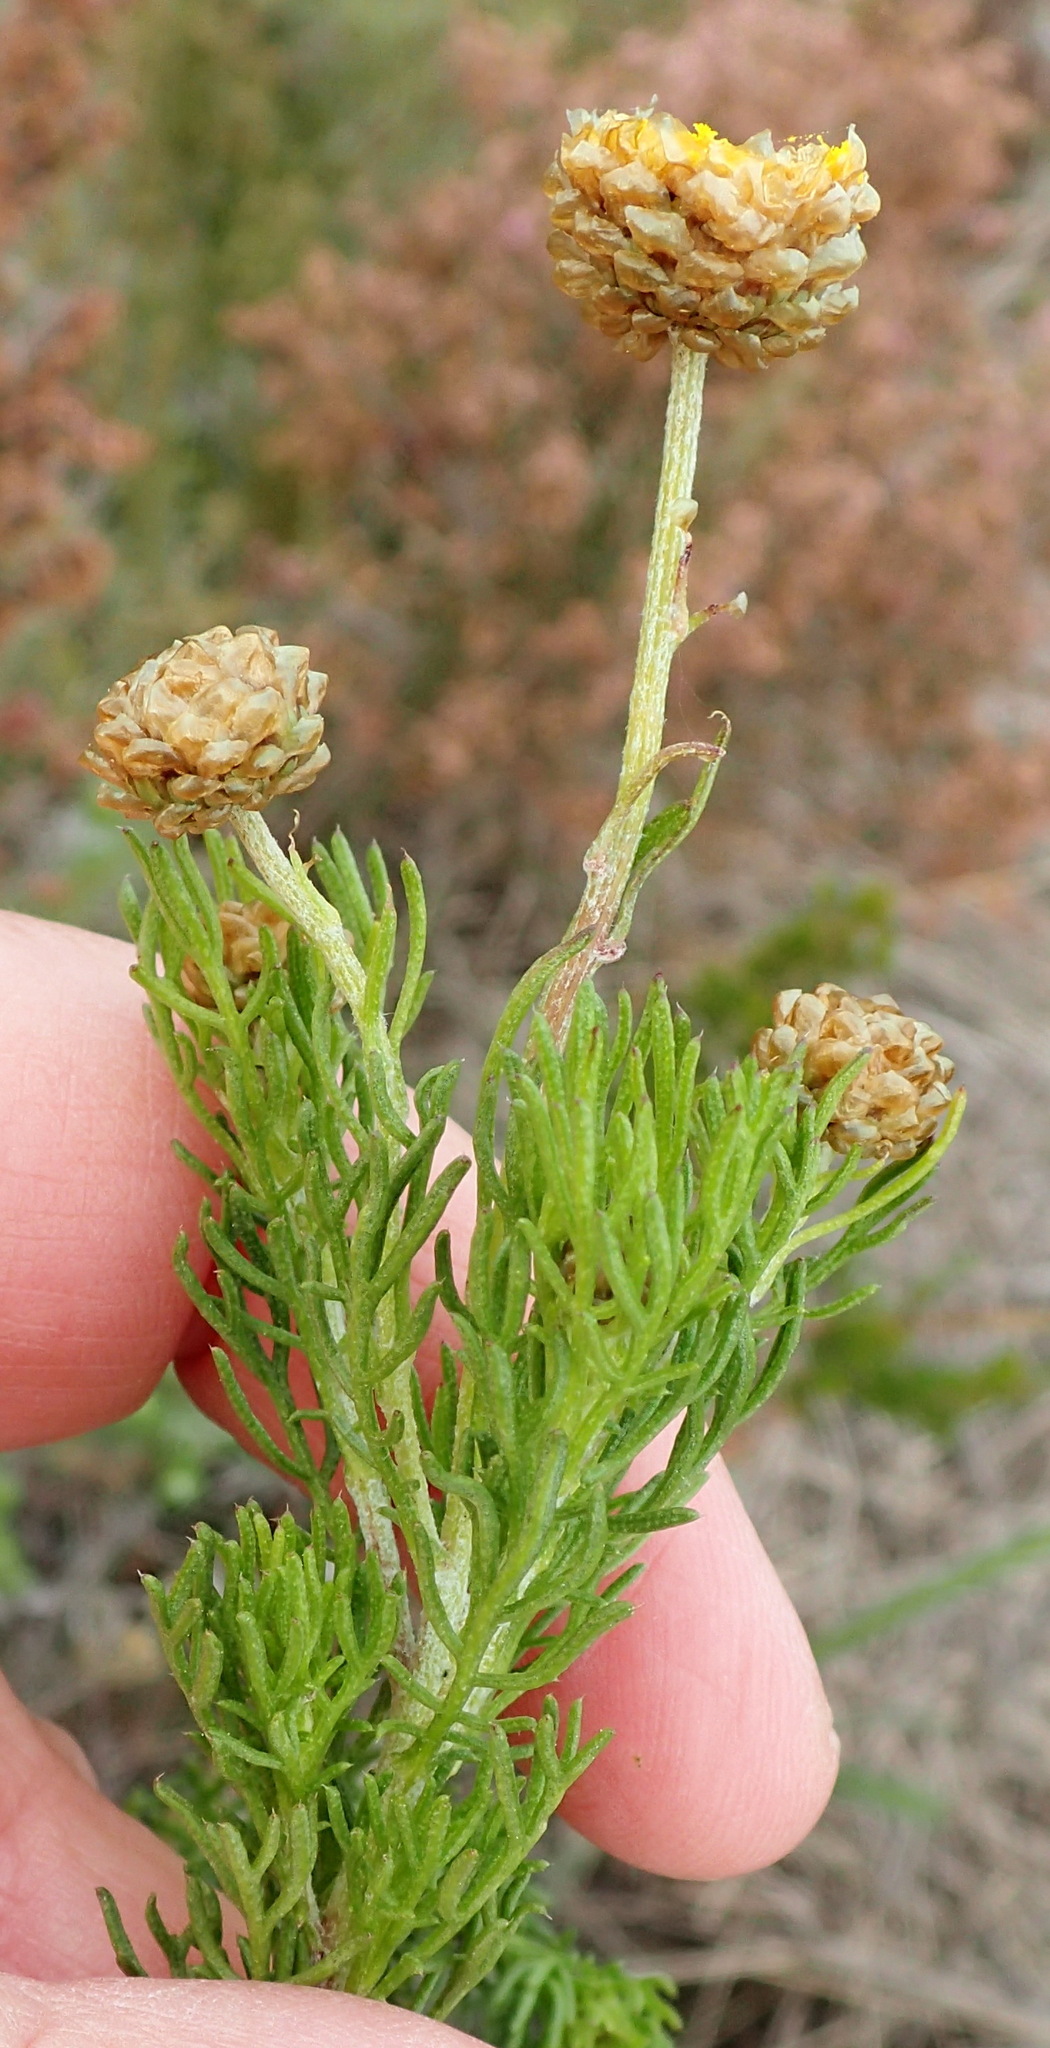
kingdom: Plantae
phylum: Tracheophyta
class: Magnoliopsida
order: Asterales
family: Asteraceae
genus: Ursinia
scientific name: Ursinia scariosa
